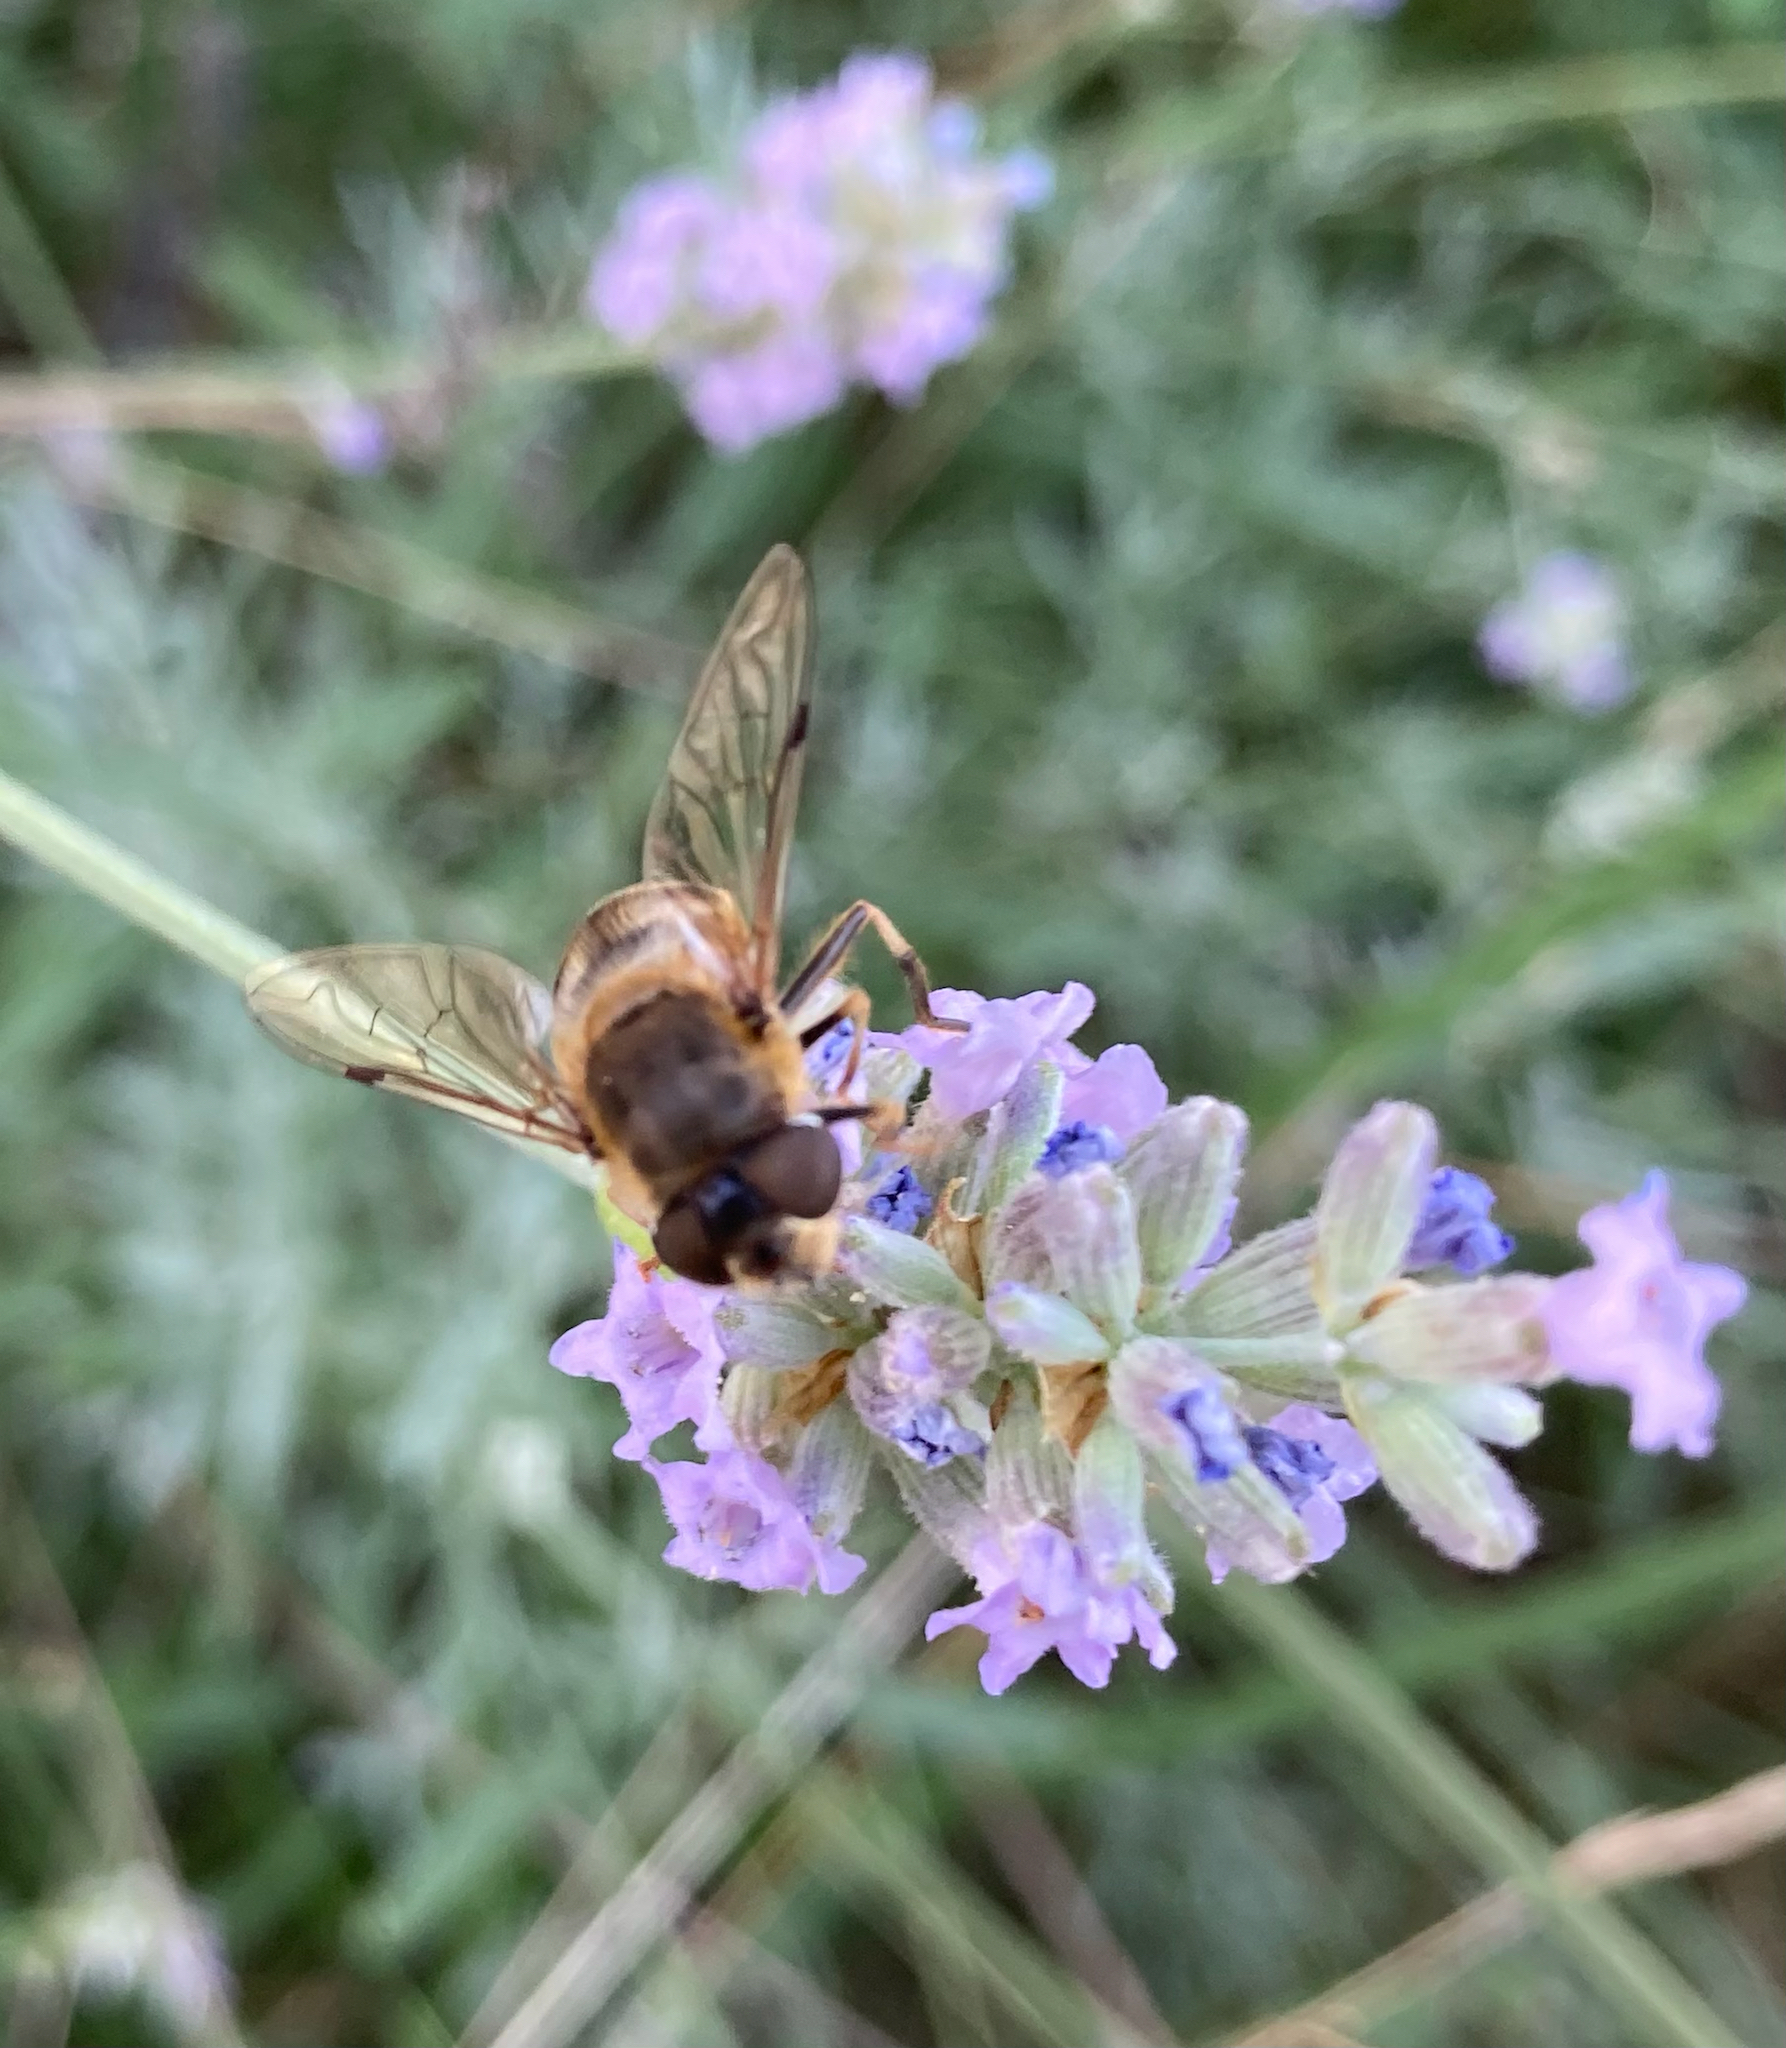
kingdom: Animalia
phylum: Arthropoda
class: Insecta
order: Diptera
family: Syrphidae
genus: Eristalis
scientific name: Eristalis pertinax
